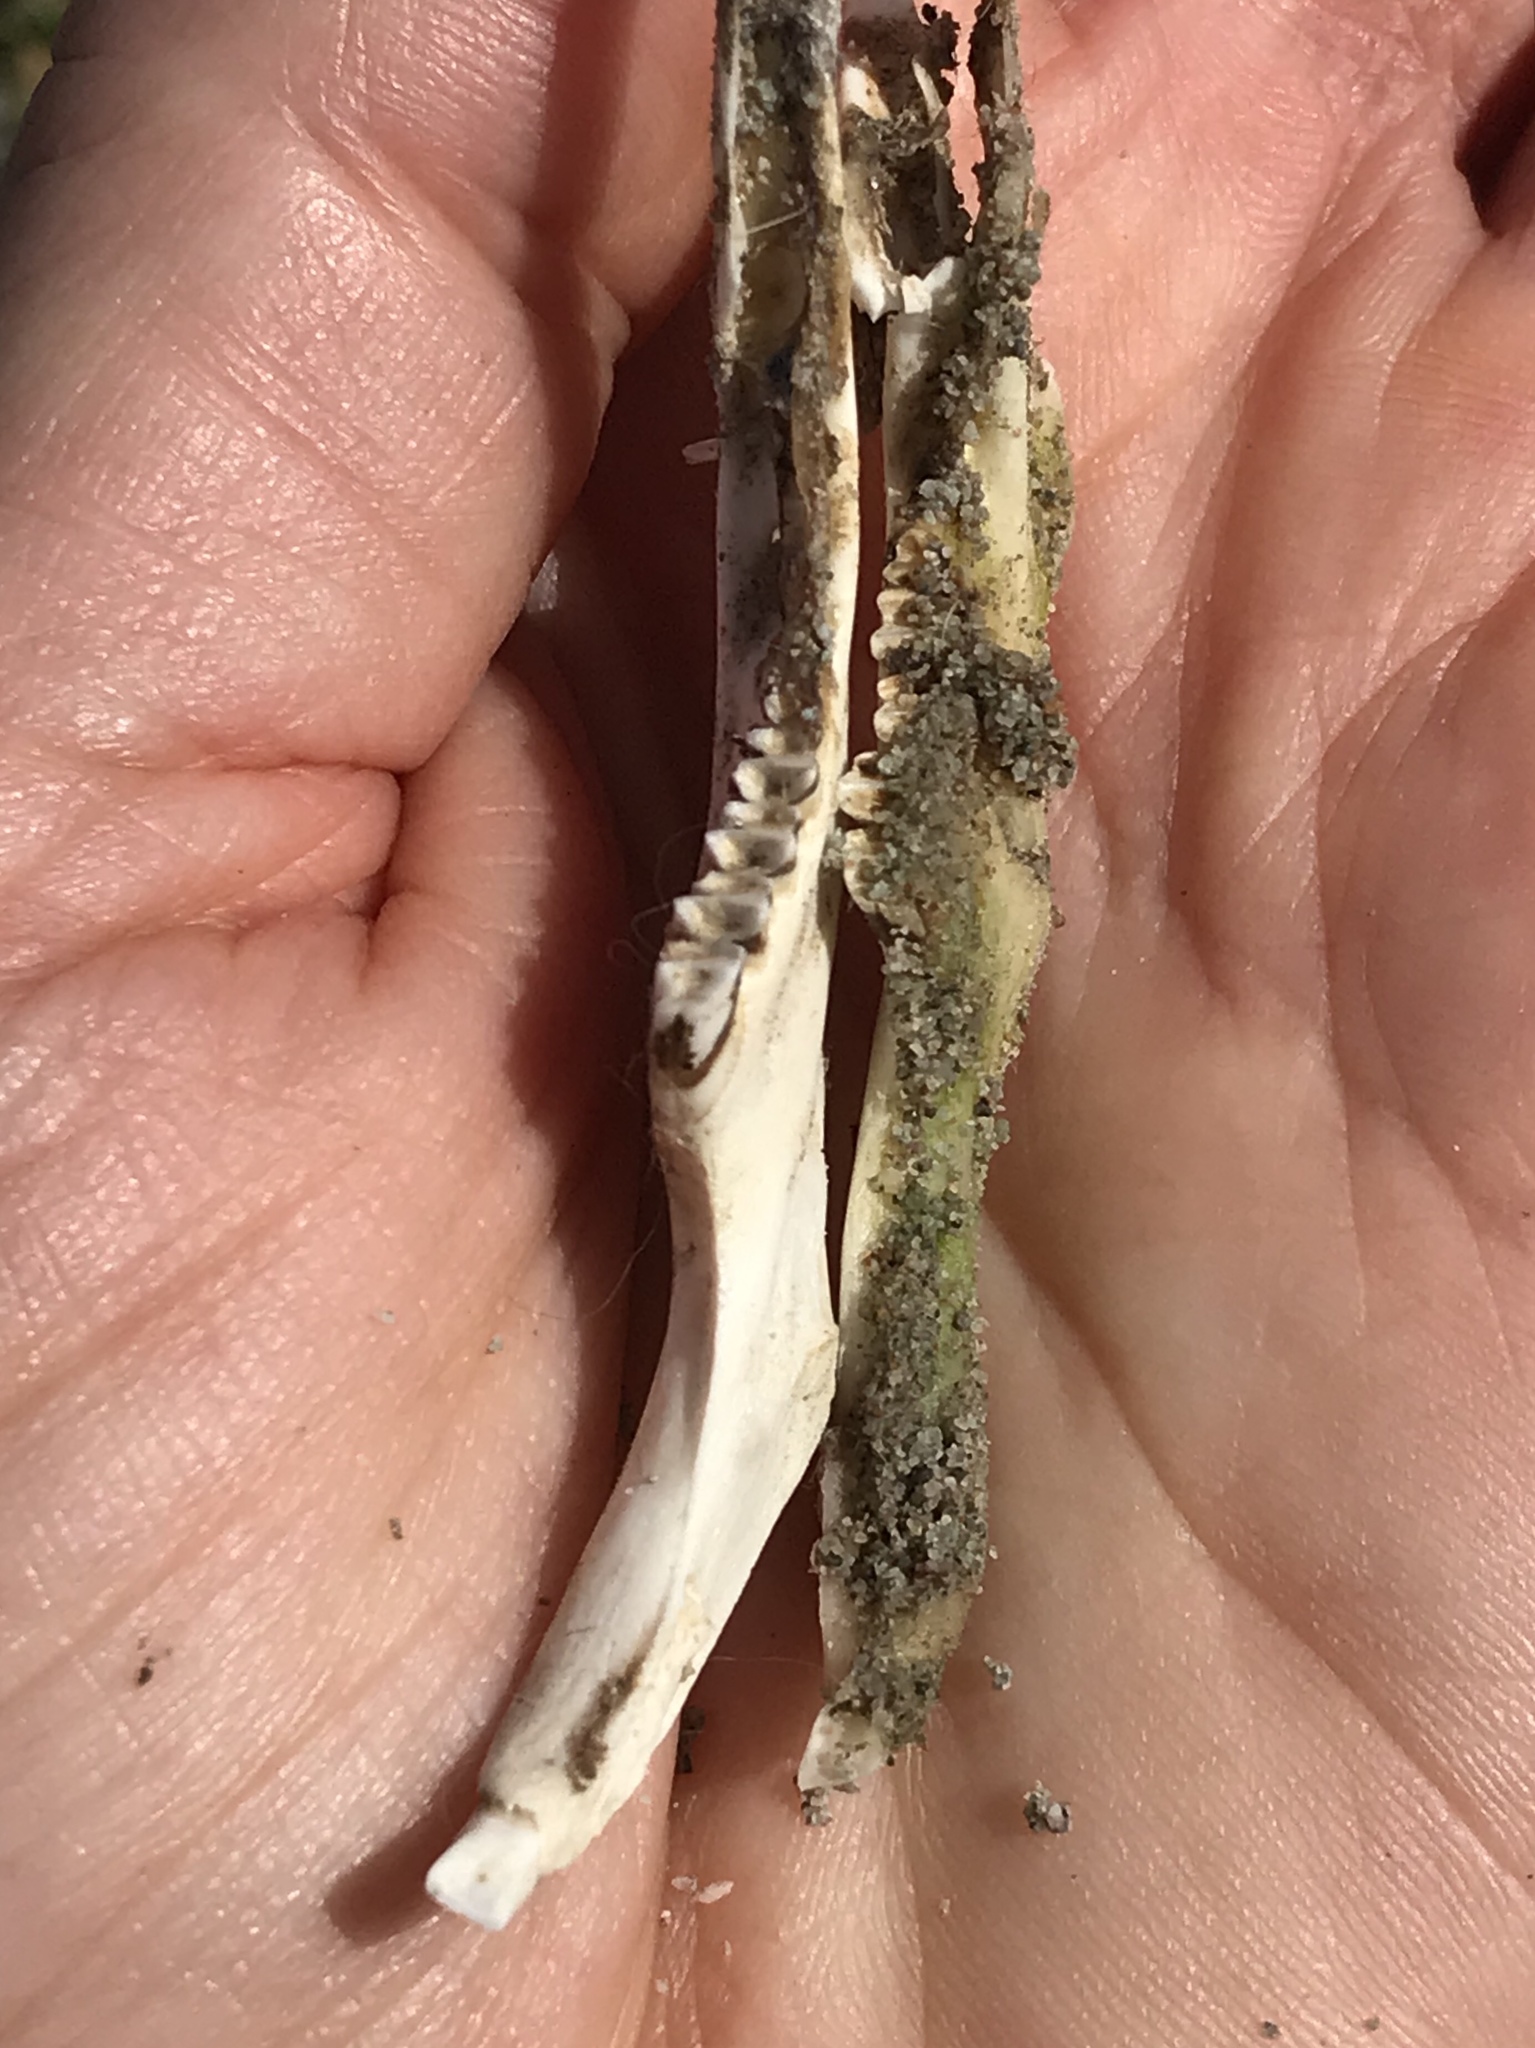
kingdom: Animalia
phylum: Chordata
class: Mammalia
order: Lagomorpha
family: Leporidae
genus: Lepus
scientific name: Lepus californicus
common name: Black-tailed jackrabbit
